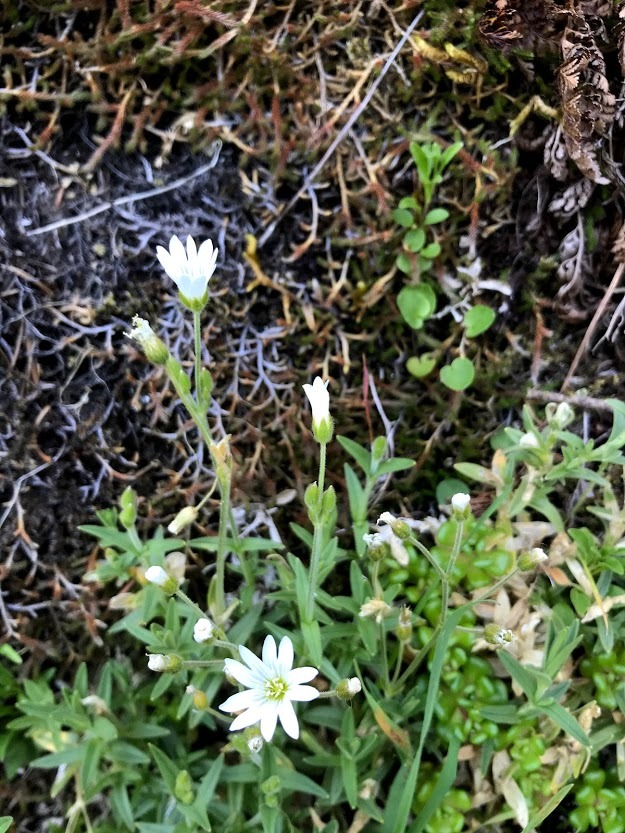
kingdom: Plantae
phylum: Tracheophyta
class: Magnoliopsida
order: Caryophyllales
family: Caryophyllaceae
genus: Cerastium
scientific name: Cerastium arvense
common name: Field mouse-ear
